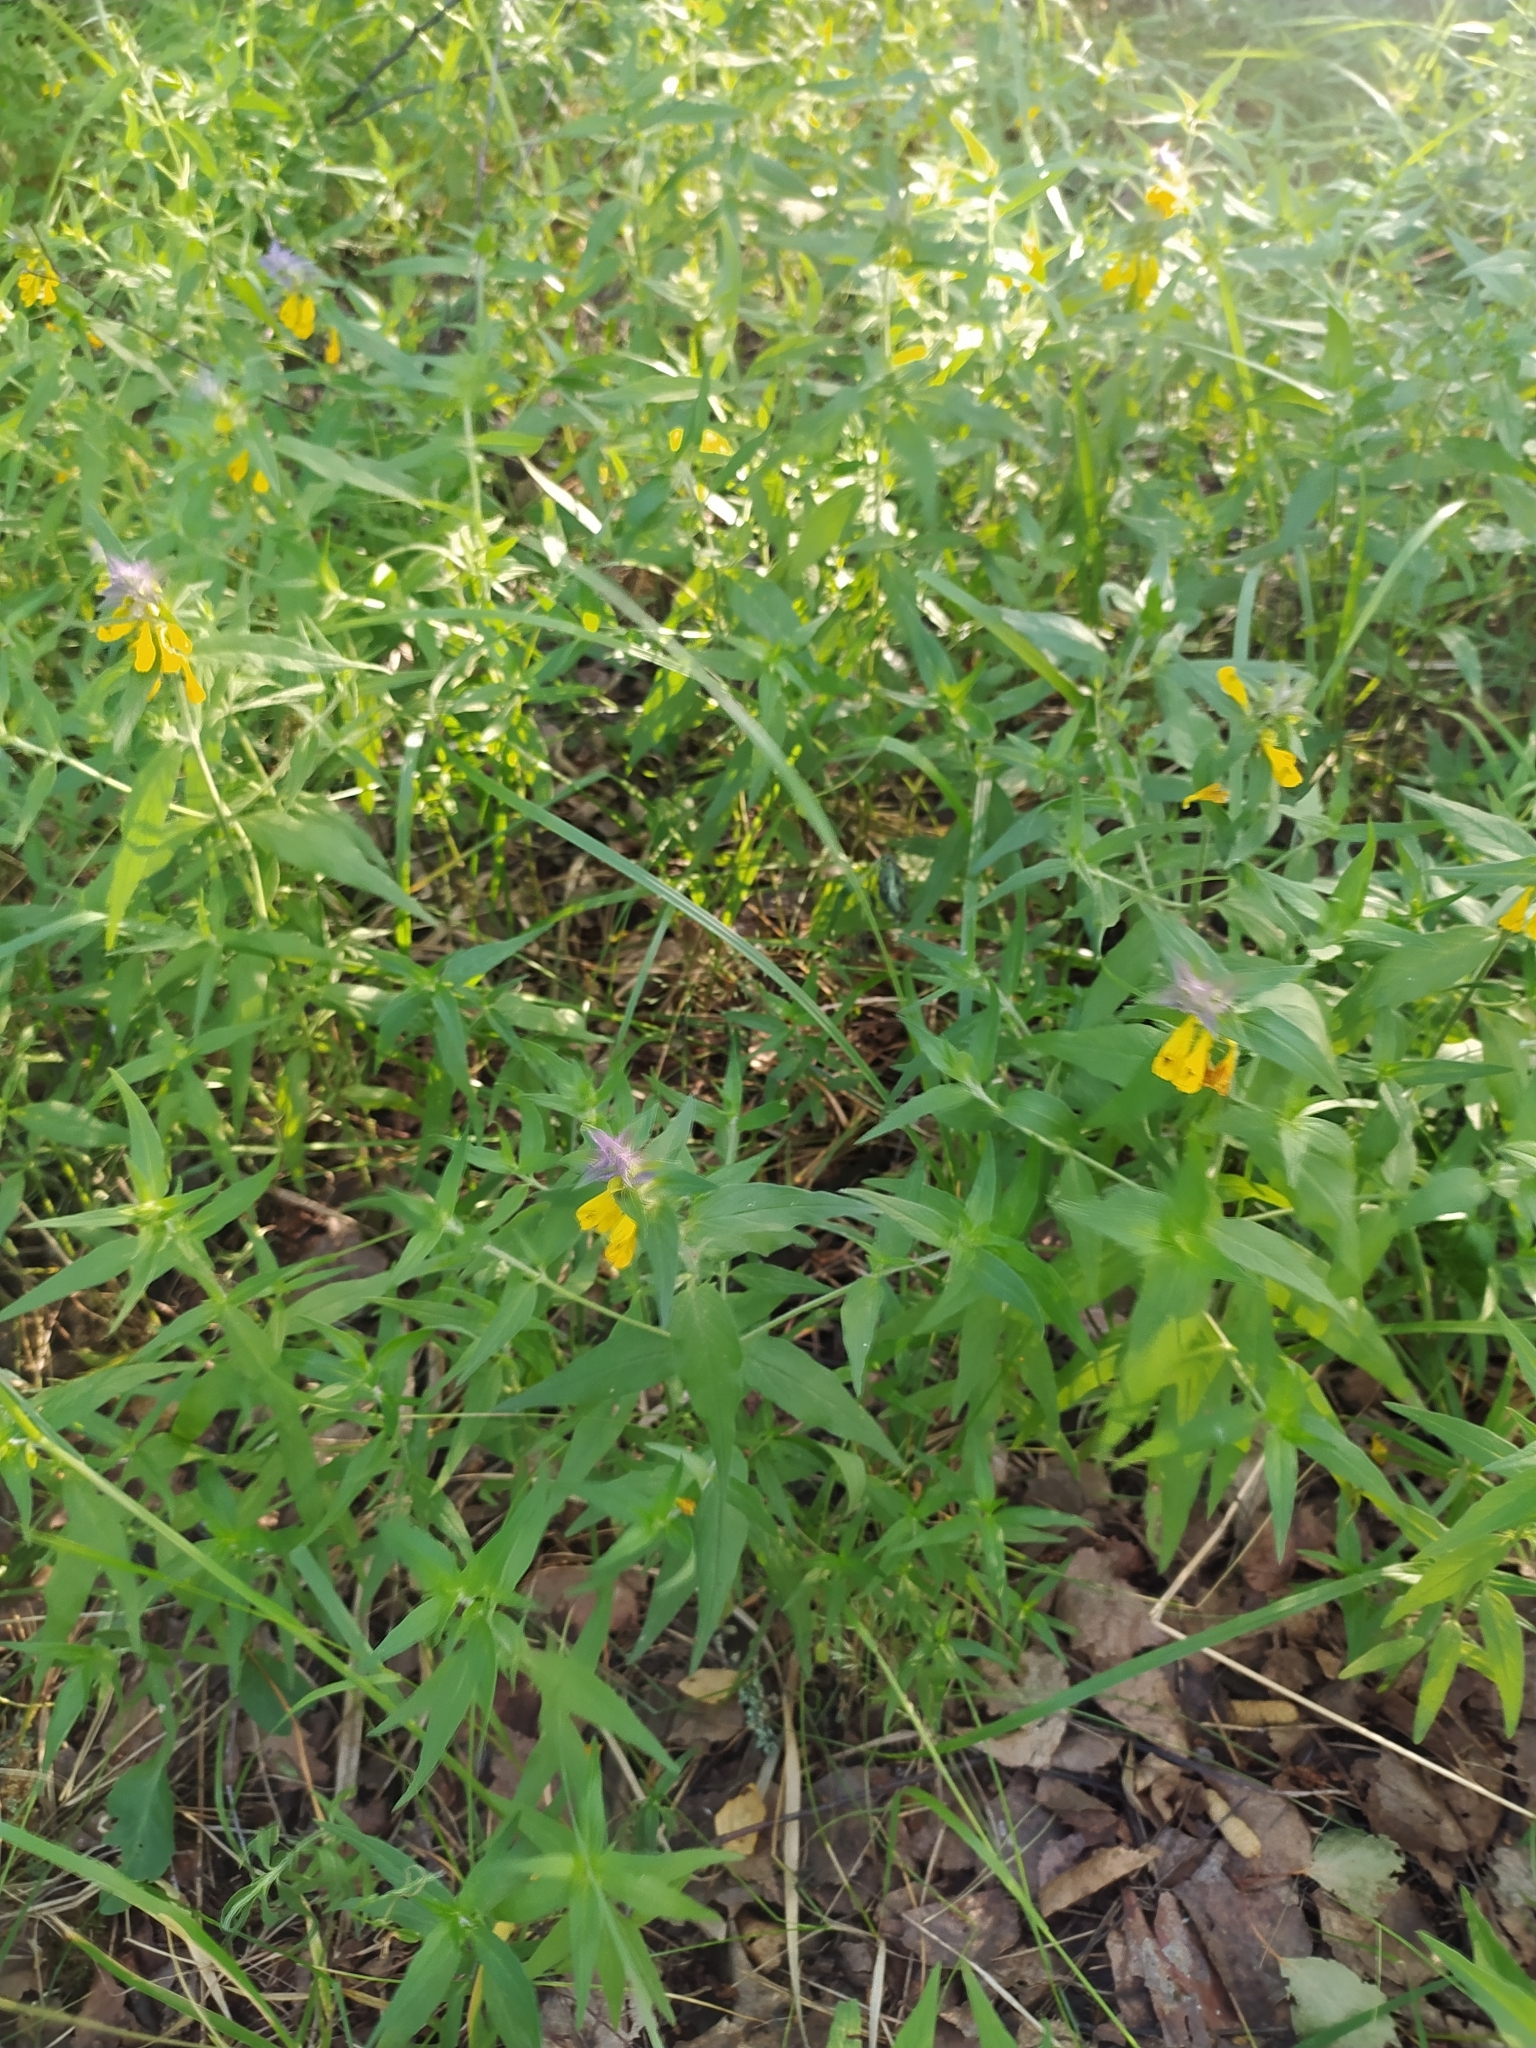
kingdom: Plantae
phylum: Tracheophyta
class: Magnoliopsida
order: Lamiales
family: Orobanchaceae
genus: Melampyrum
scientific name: Melampyrum nemorosum
